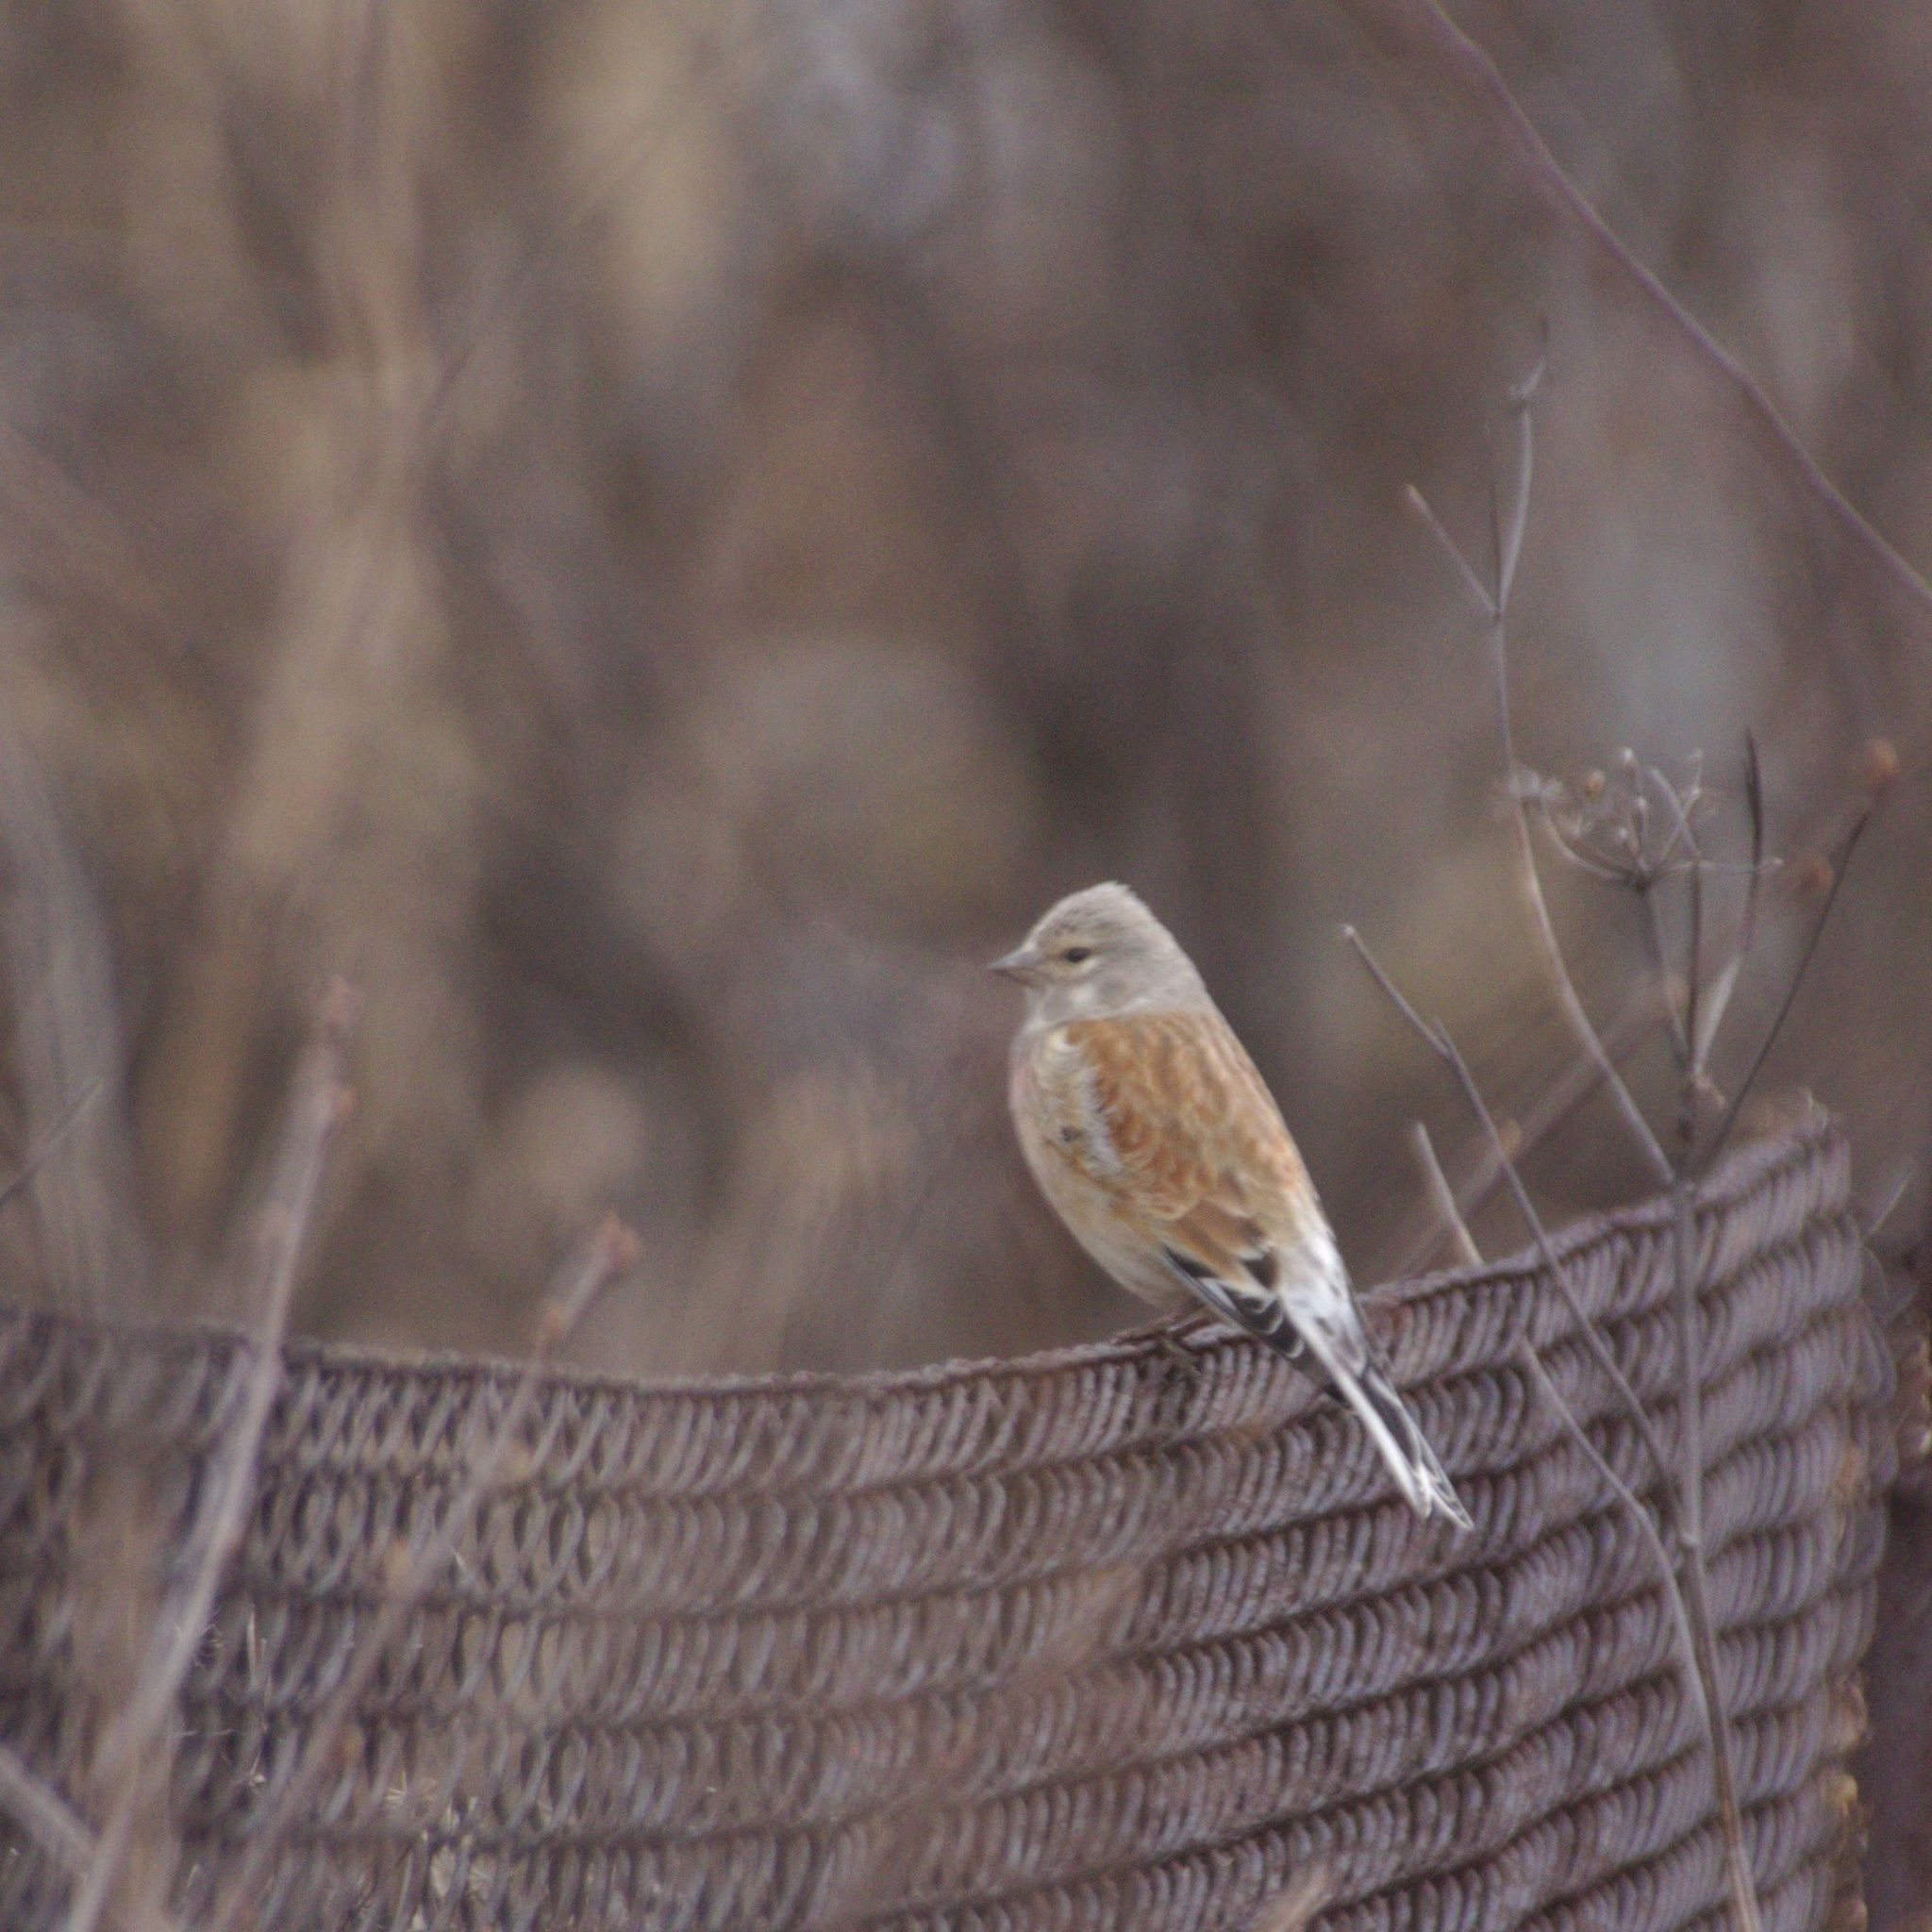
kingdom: Animalia
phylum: Chordata
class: Aves
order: Passeriformes
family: Fringillidae
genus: Linaria
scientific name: Linaria cannabina
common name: Common linnet
